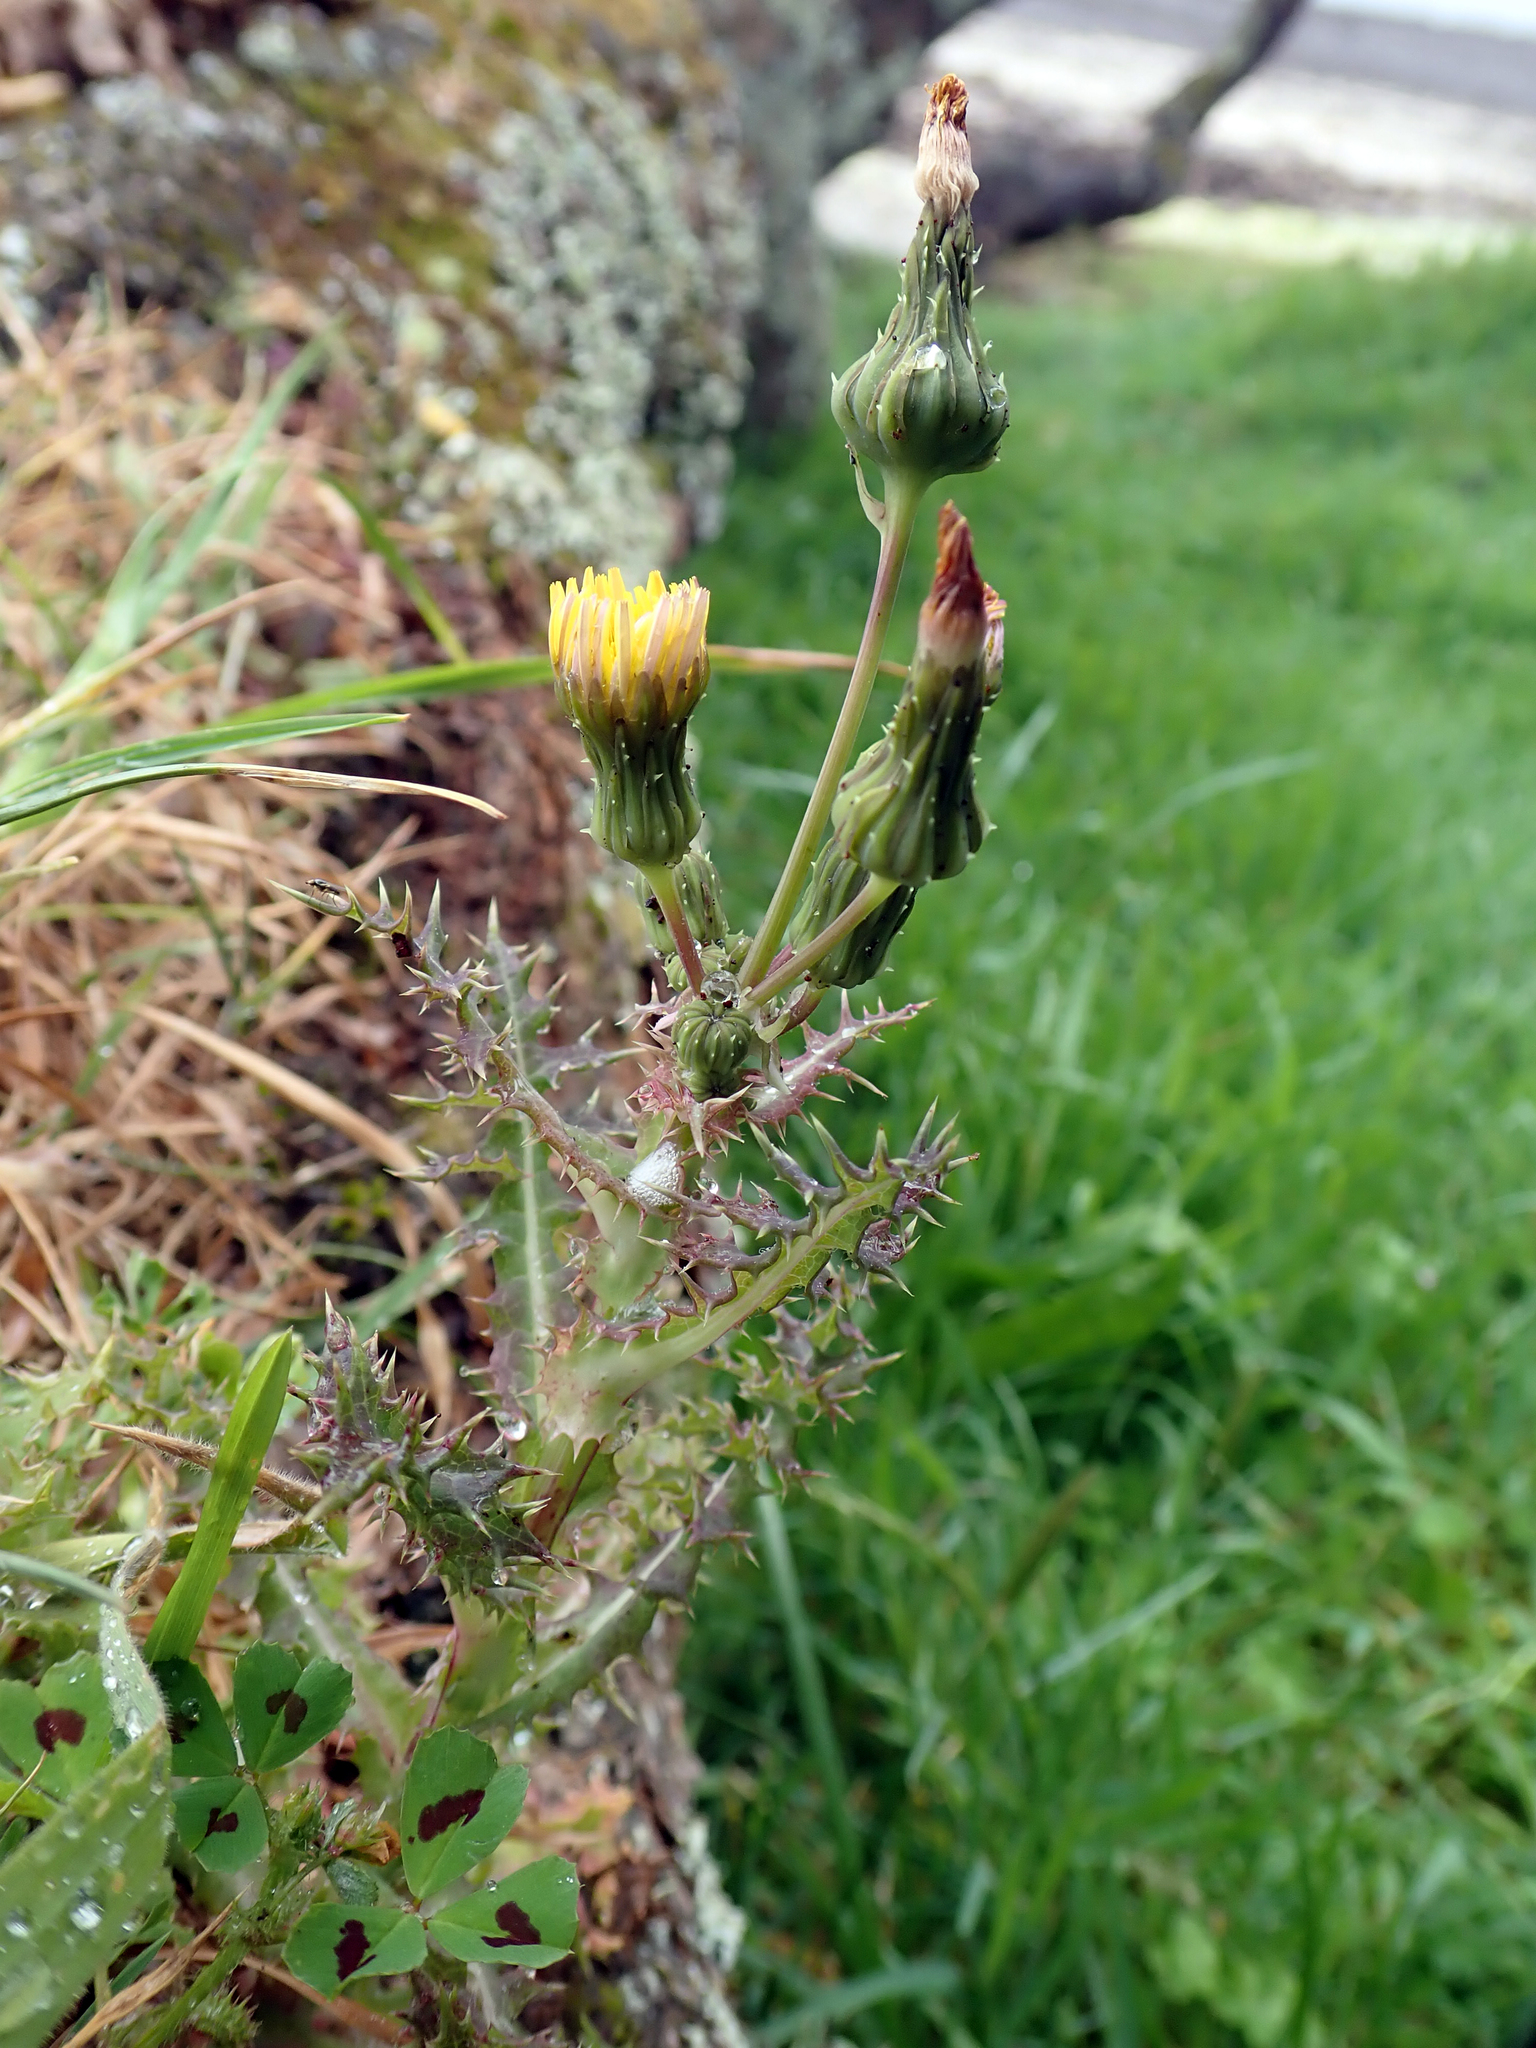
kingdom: Plantae
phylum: Tracheophyta
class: Magnoliopsida
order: Asterales
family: Asteraceae
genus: Sonchus
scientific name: Sonchus asper
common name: Prickly sow-thistle
